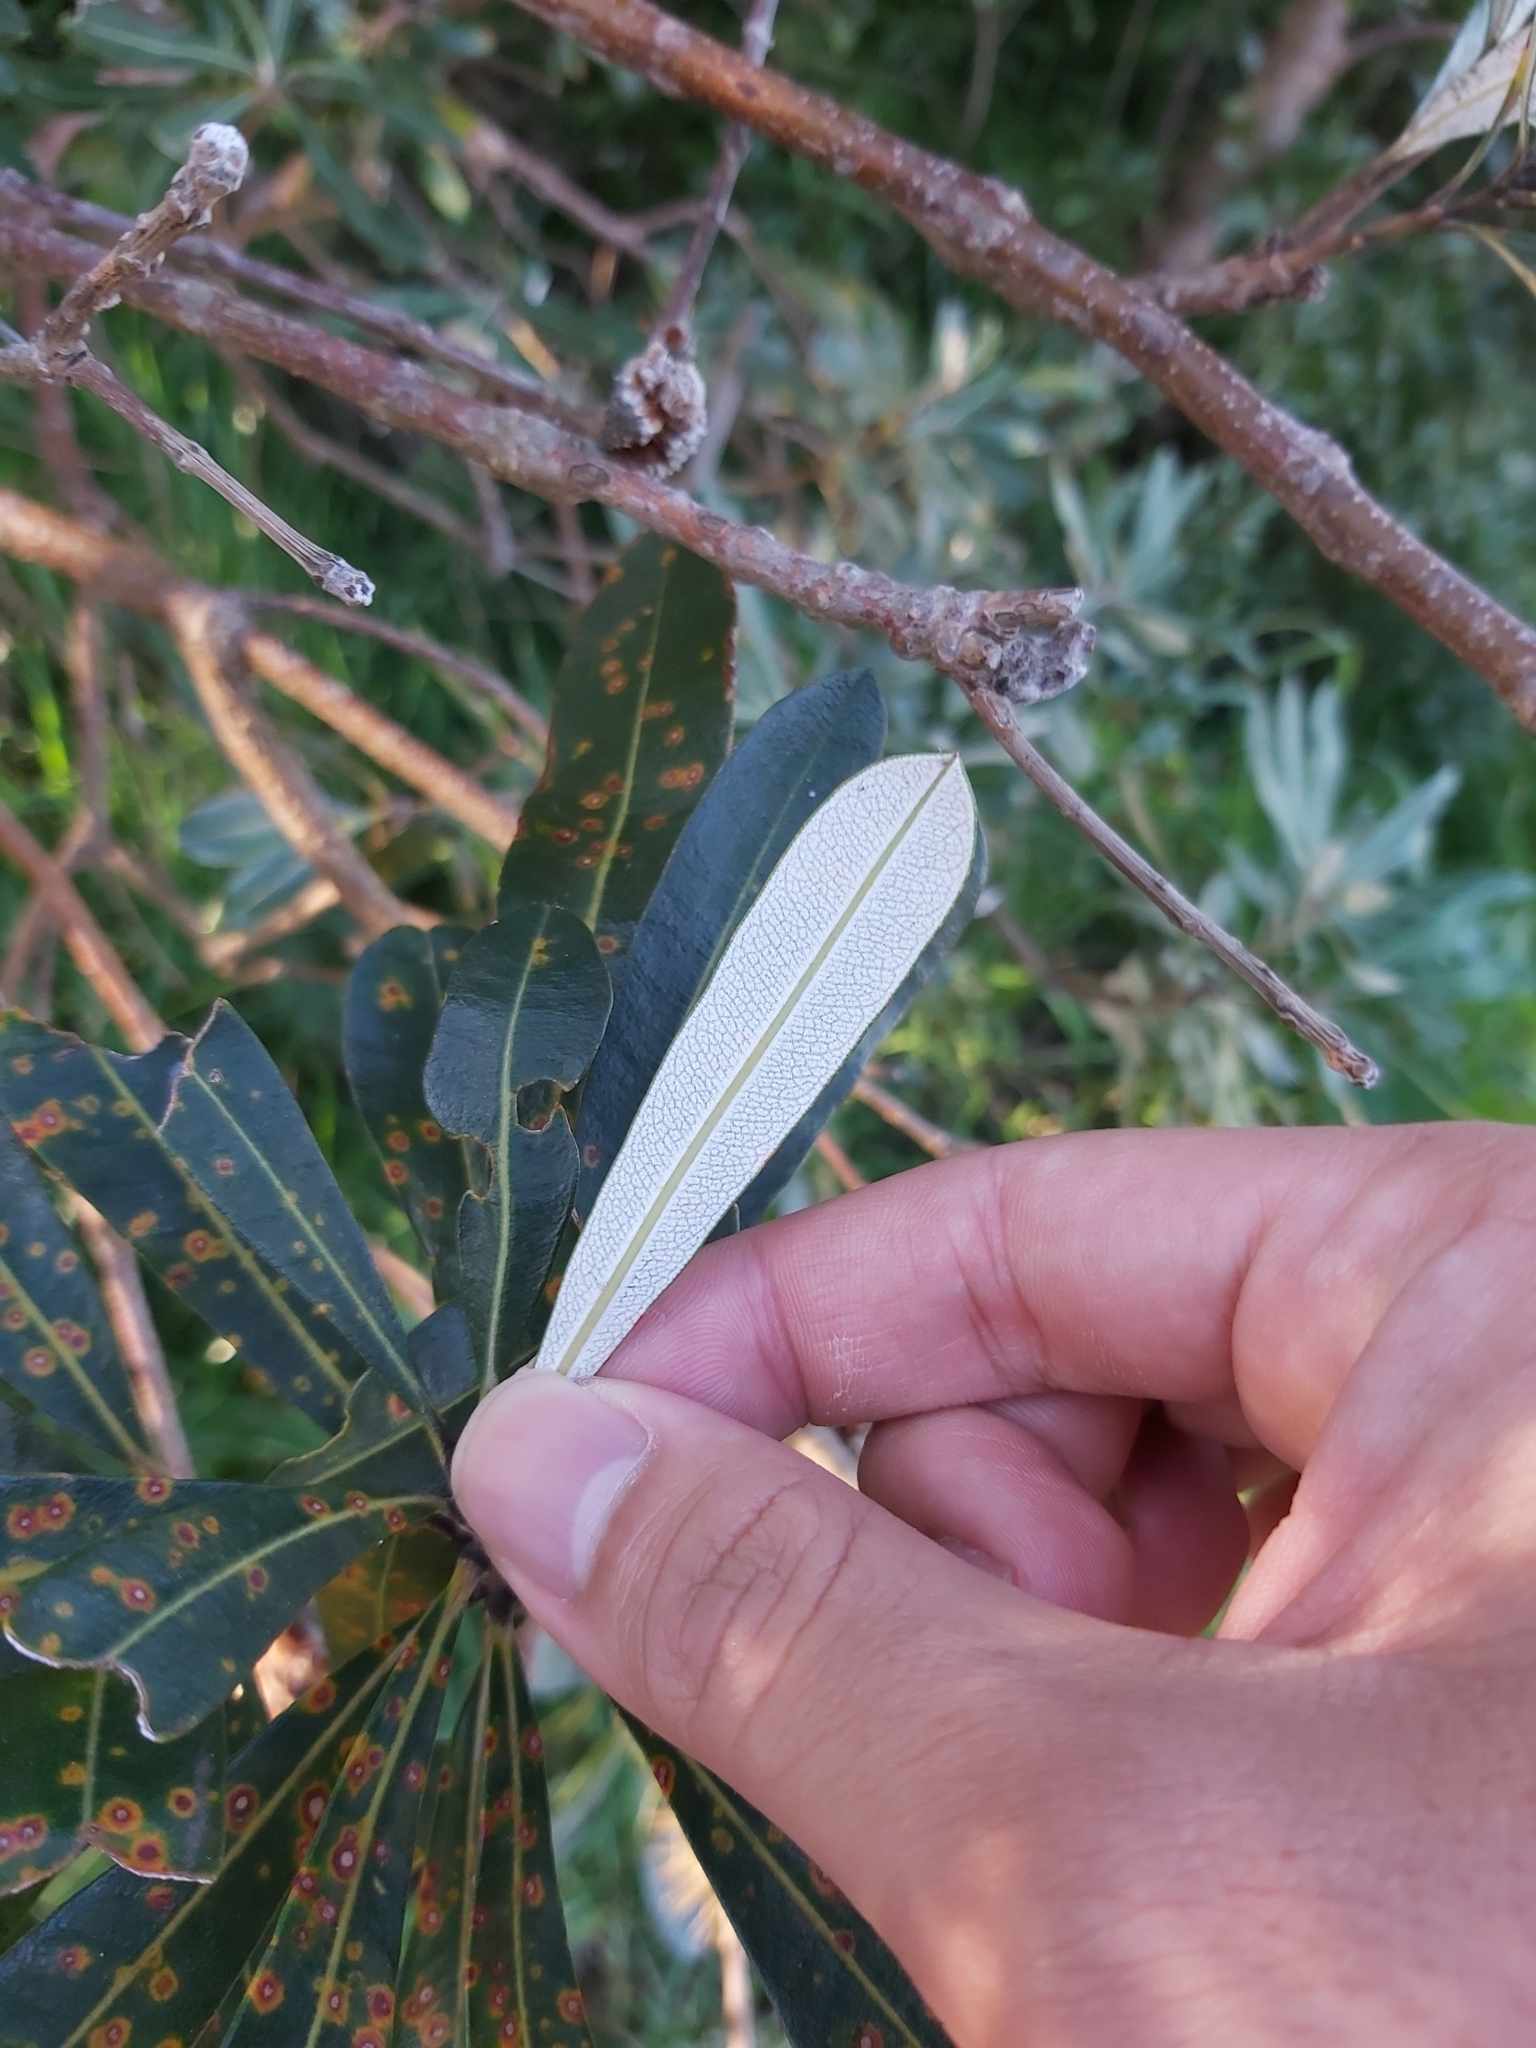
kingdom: Plantae
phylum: Tracheophyta
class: Magnoliopsida
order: Proteales
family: Proteaceae
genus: Banksia
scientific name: Banksia integrifolia
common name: White-honeysuckle
